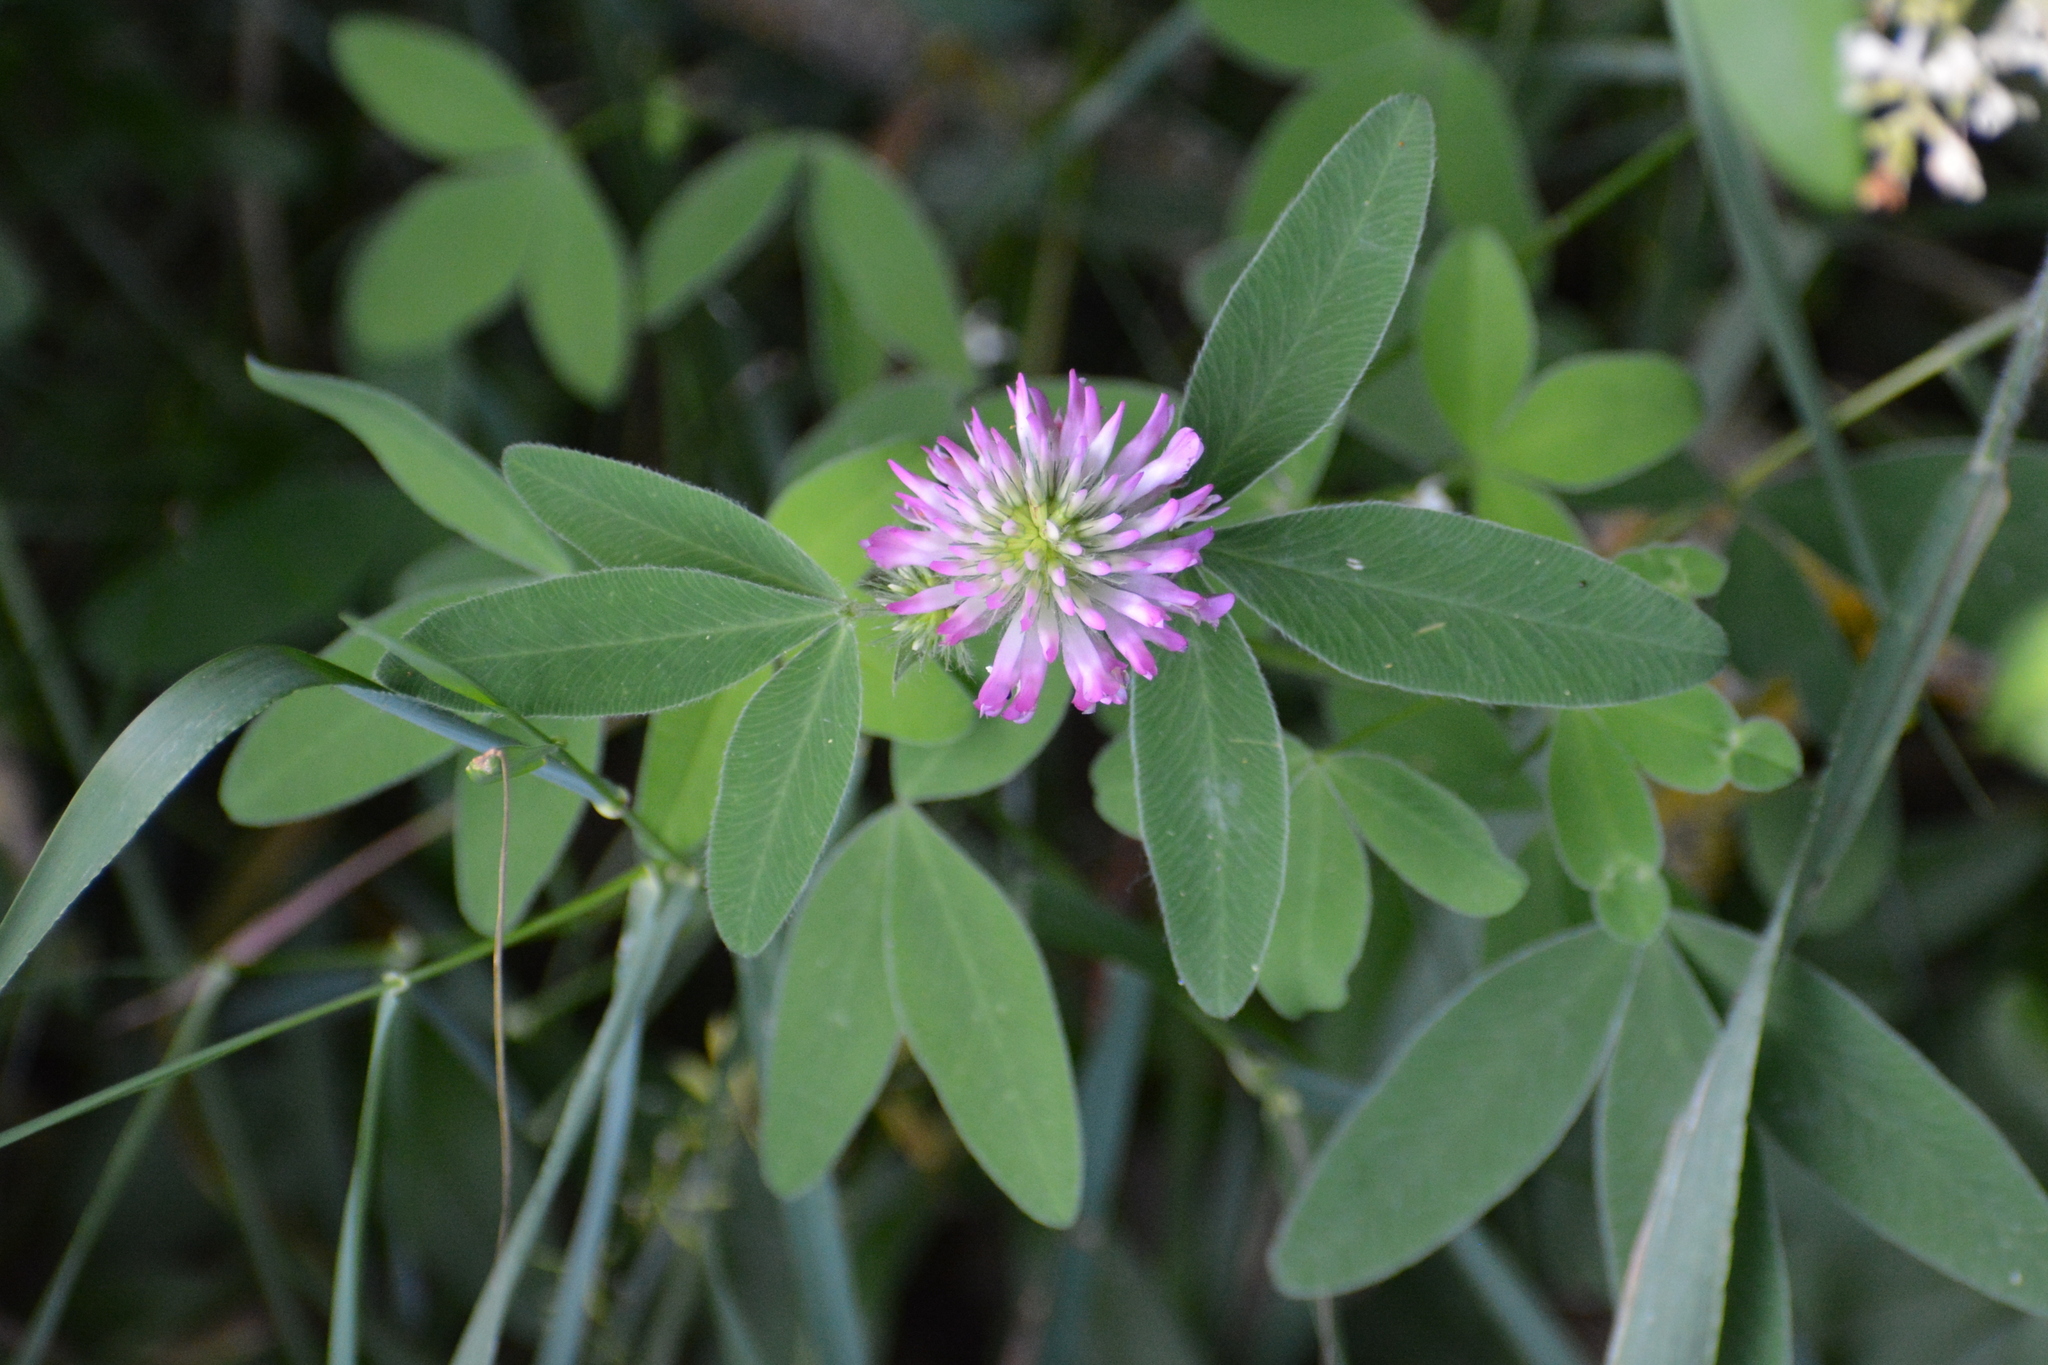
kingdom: Plantae
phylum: Tracheophyta
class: Magnoliopsida
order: Fabales
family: Fabaceae
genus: Trifolium
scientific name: Trifolium medium
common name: Zigzag clover
